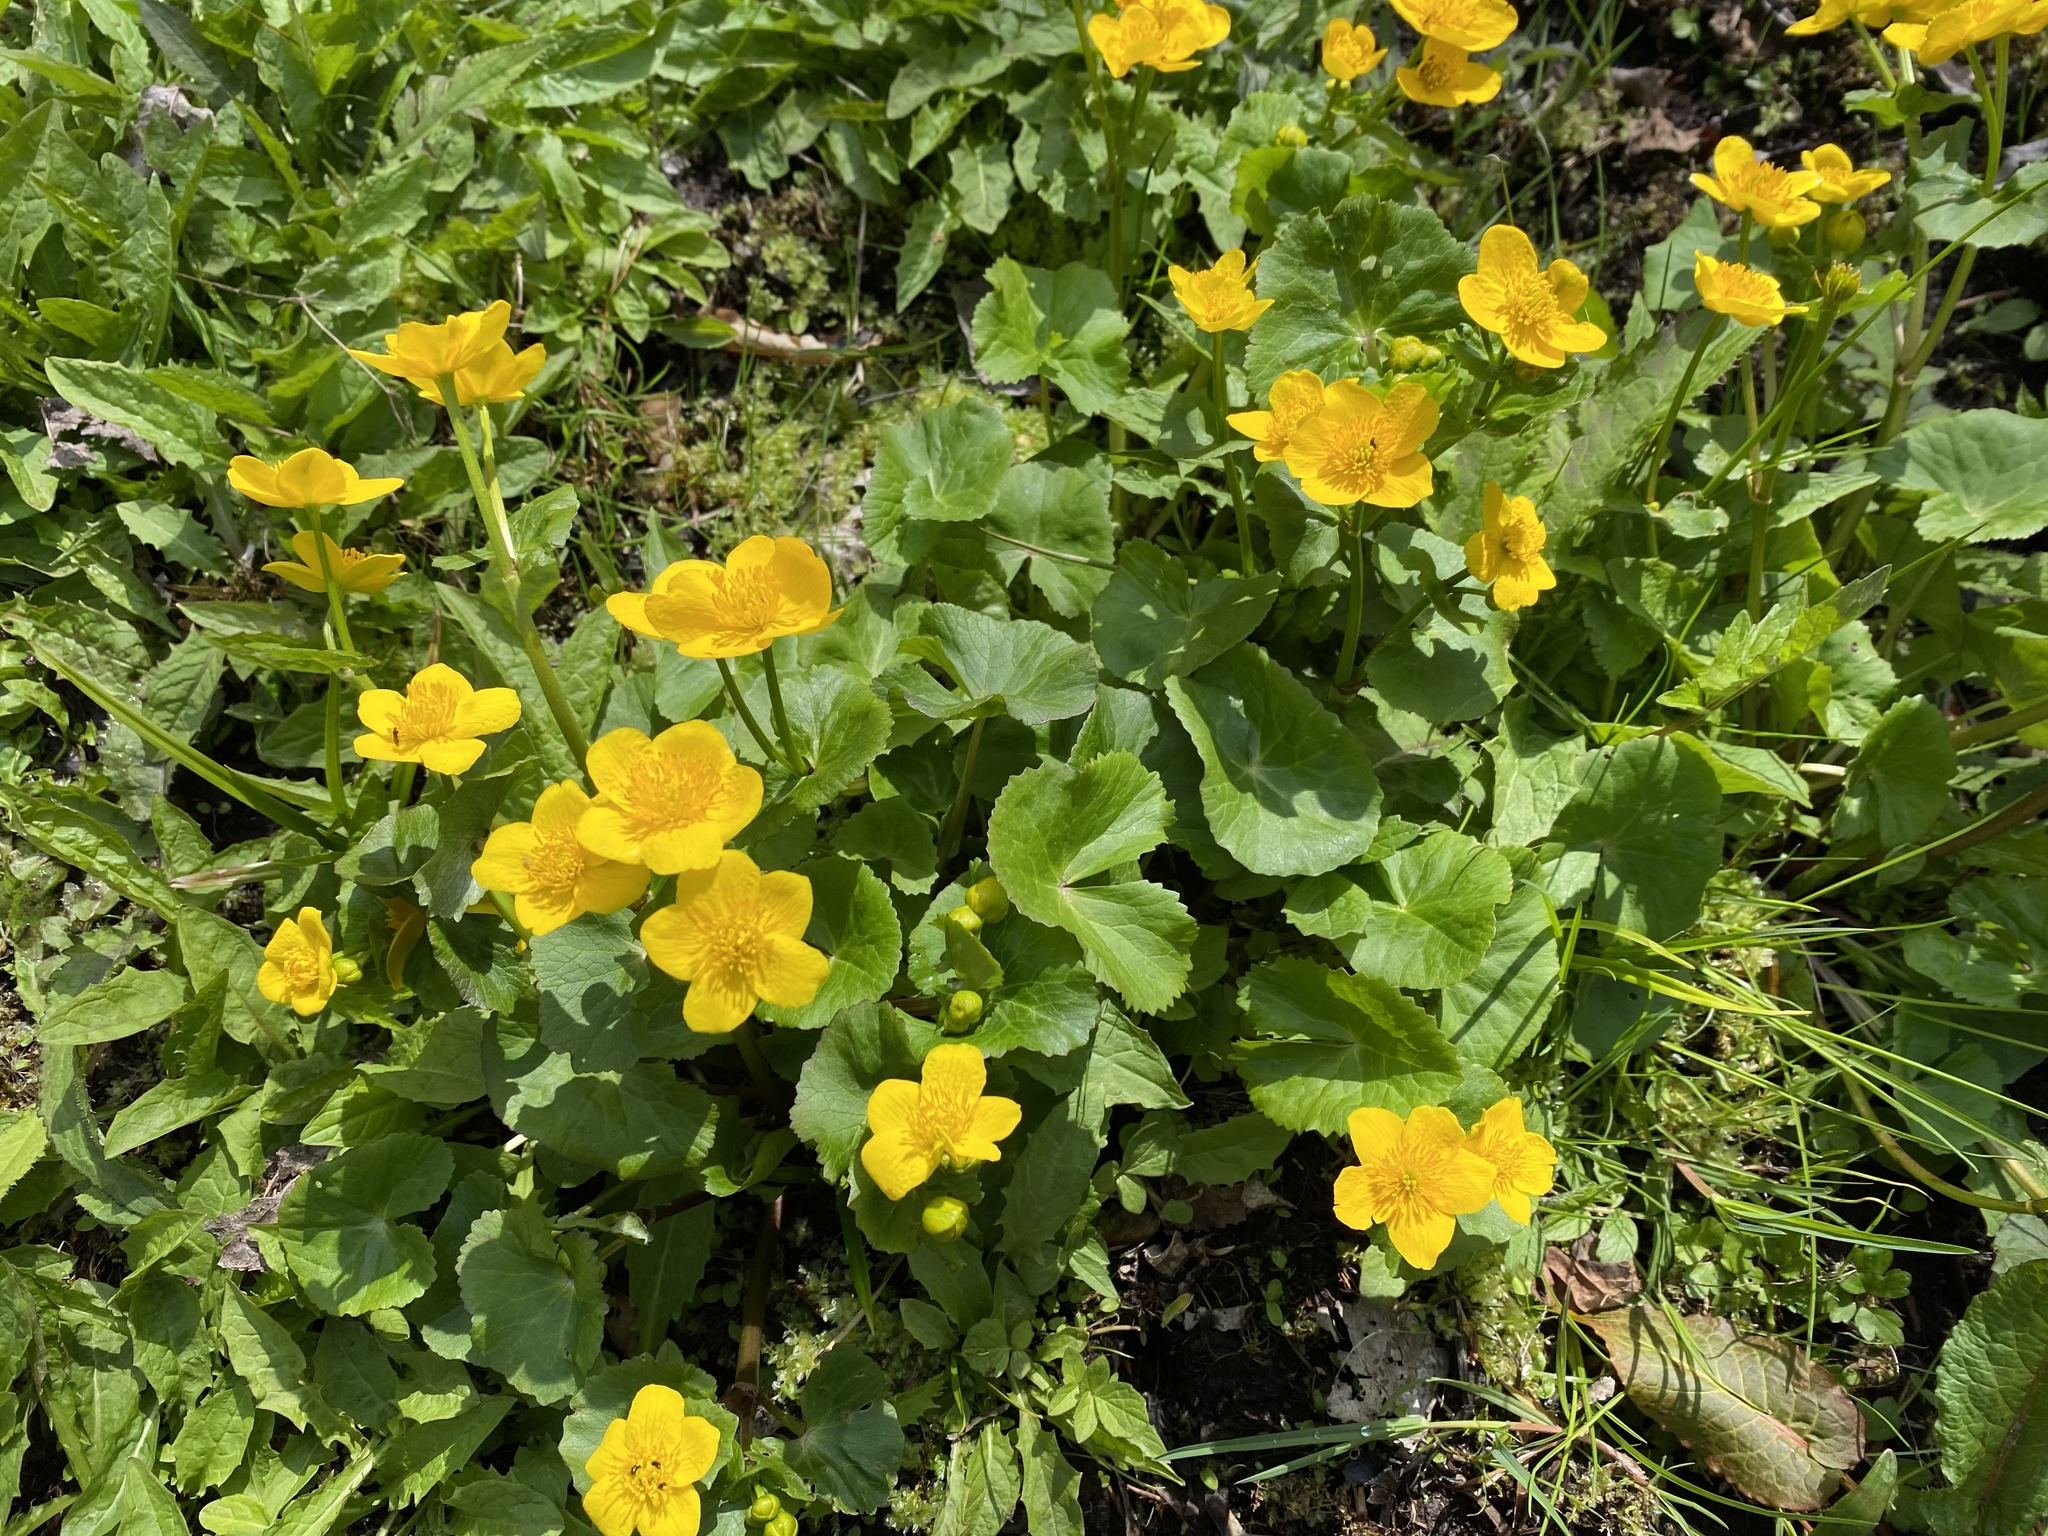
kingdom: Plantae
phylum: Tracheophyta
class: Magnoliopsida
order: Ranunculales
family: Ranunculaceae
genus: Caltha
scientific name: Caltha palustris
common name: Marsh marigold
